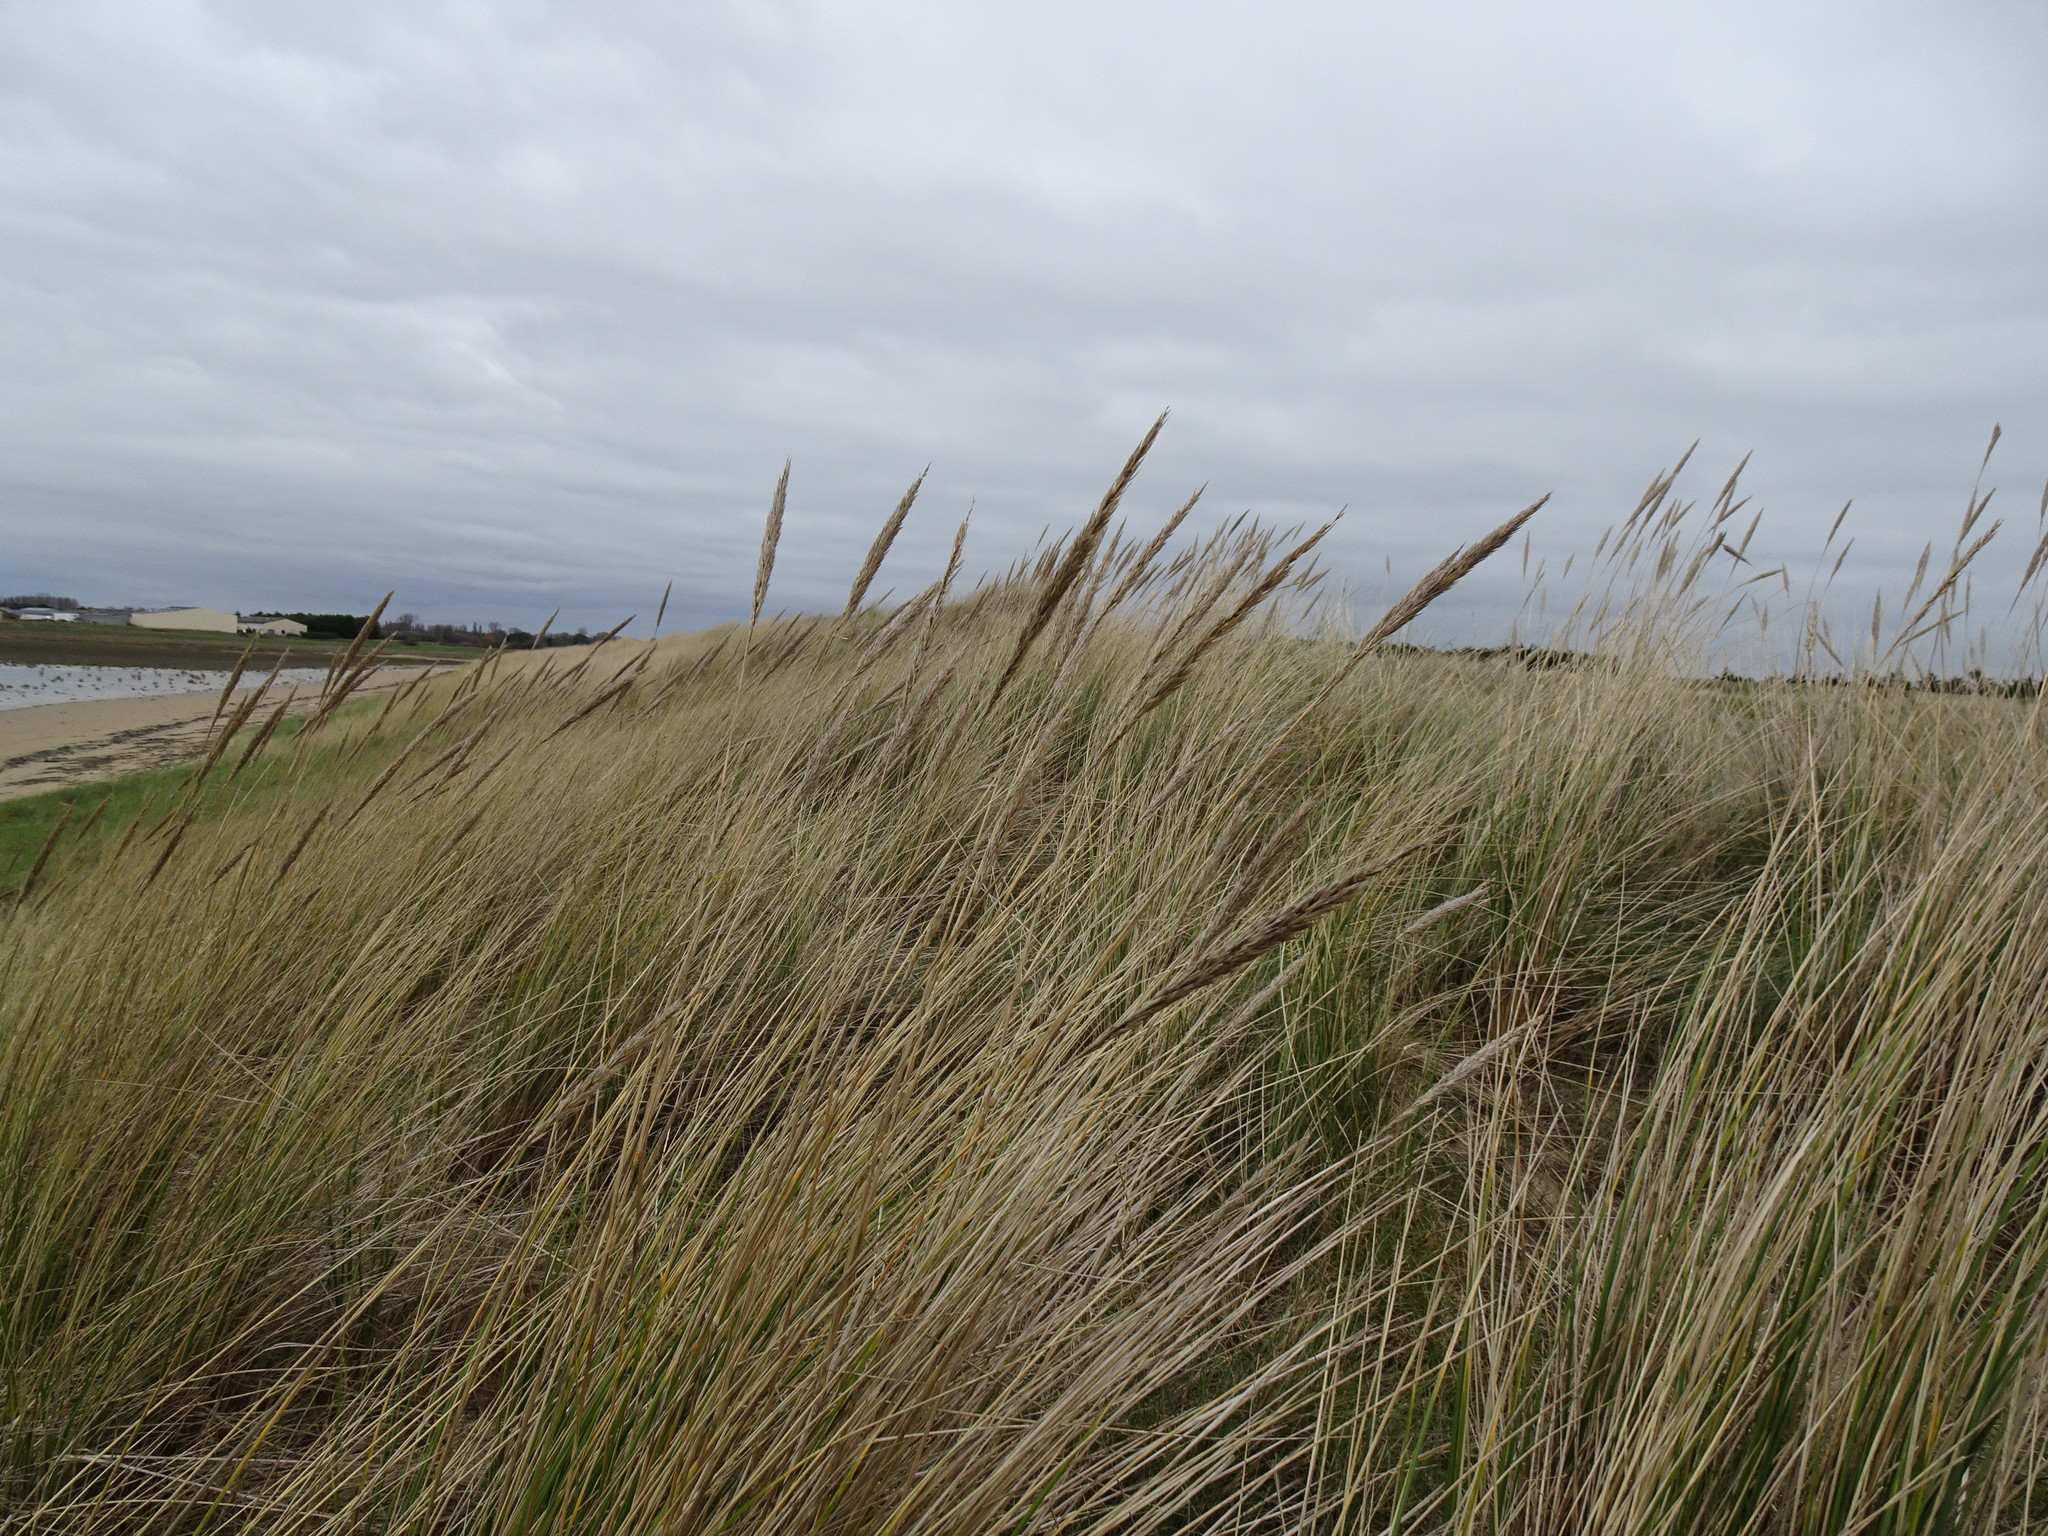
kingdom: Plantae
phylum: Tracheophyta
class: Liliopsida
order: Poales
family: Poaceae
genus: Calamagrostis
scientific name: Calamagrostis arenaria
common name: European beachgrass
